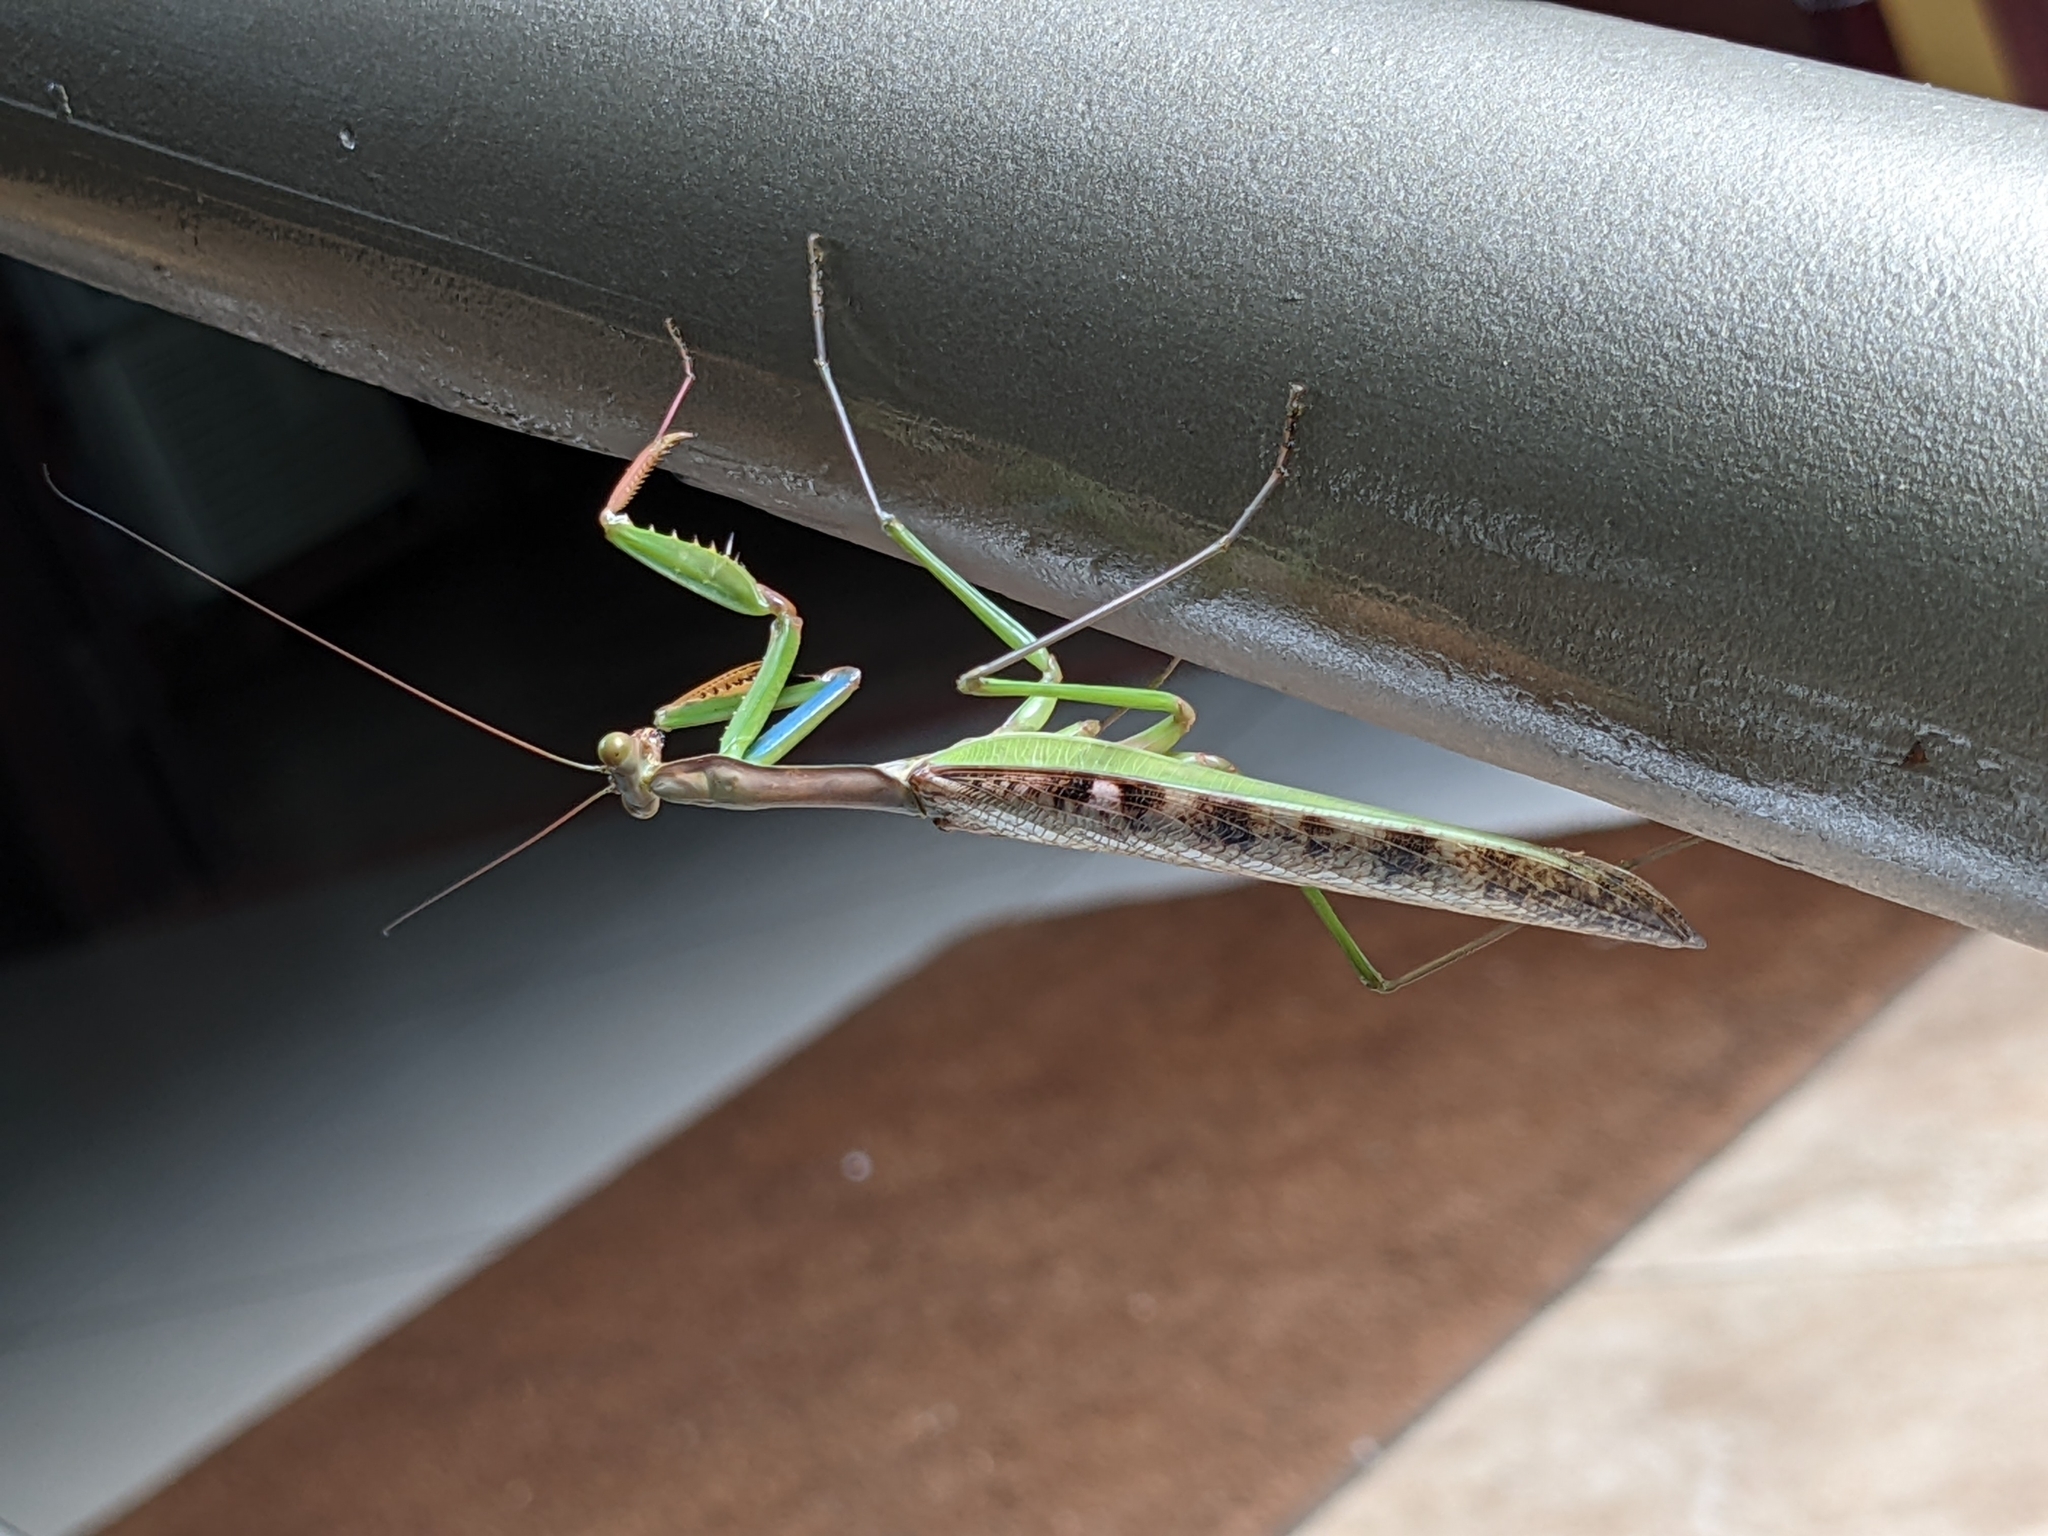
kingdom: Animalia
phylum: Arthropoda
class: Insecta
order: Mantodea
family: Mantidae
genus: Polyspilota
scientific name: Polyspilota aeruginosa
